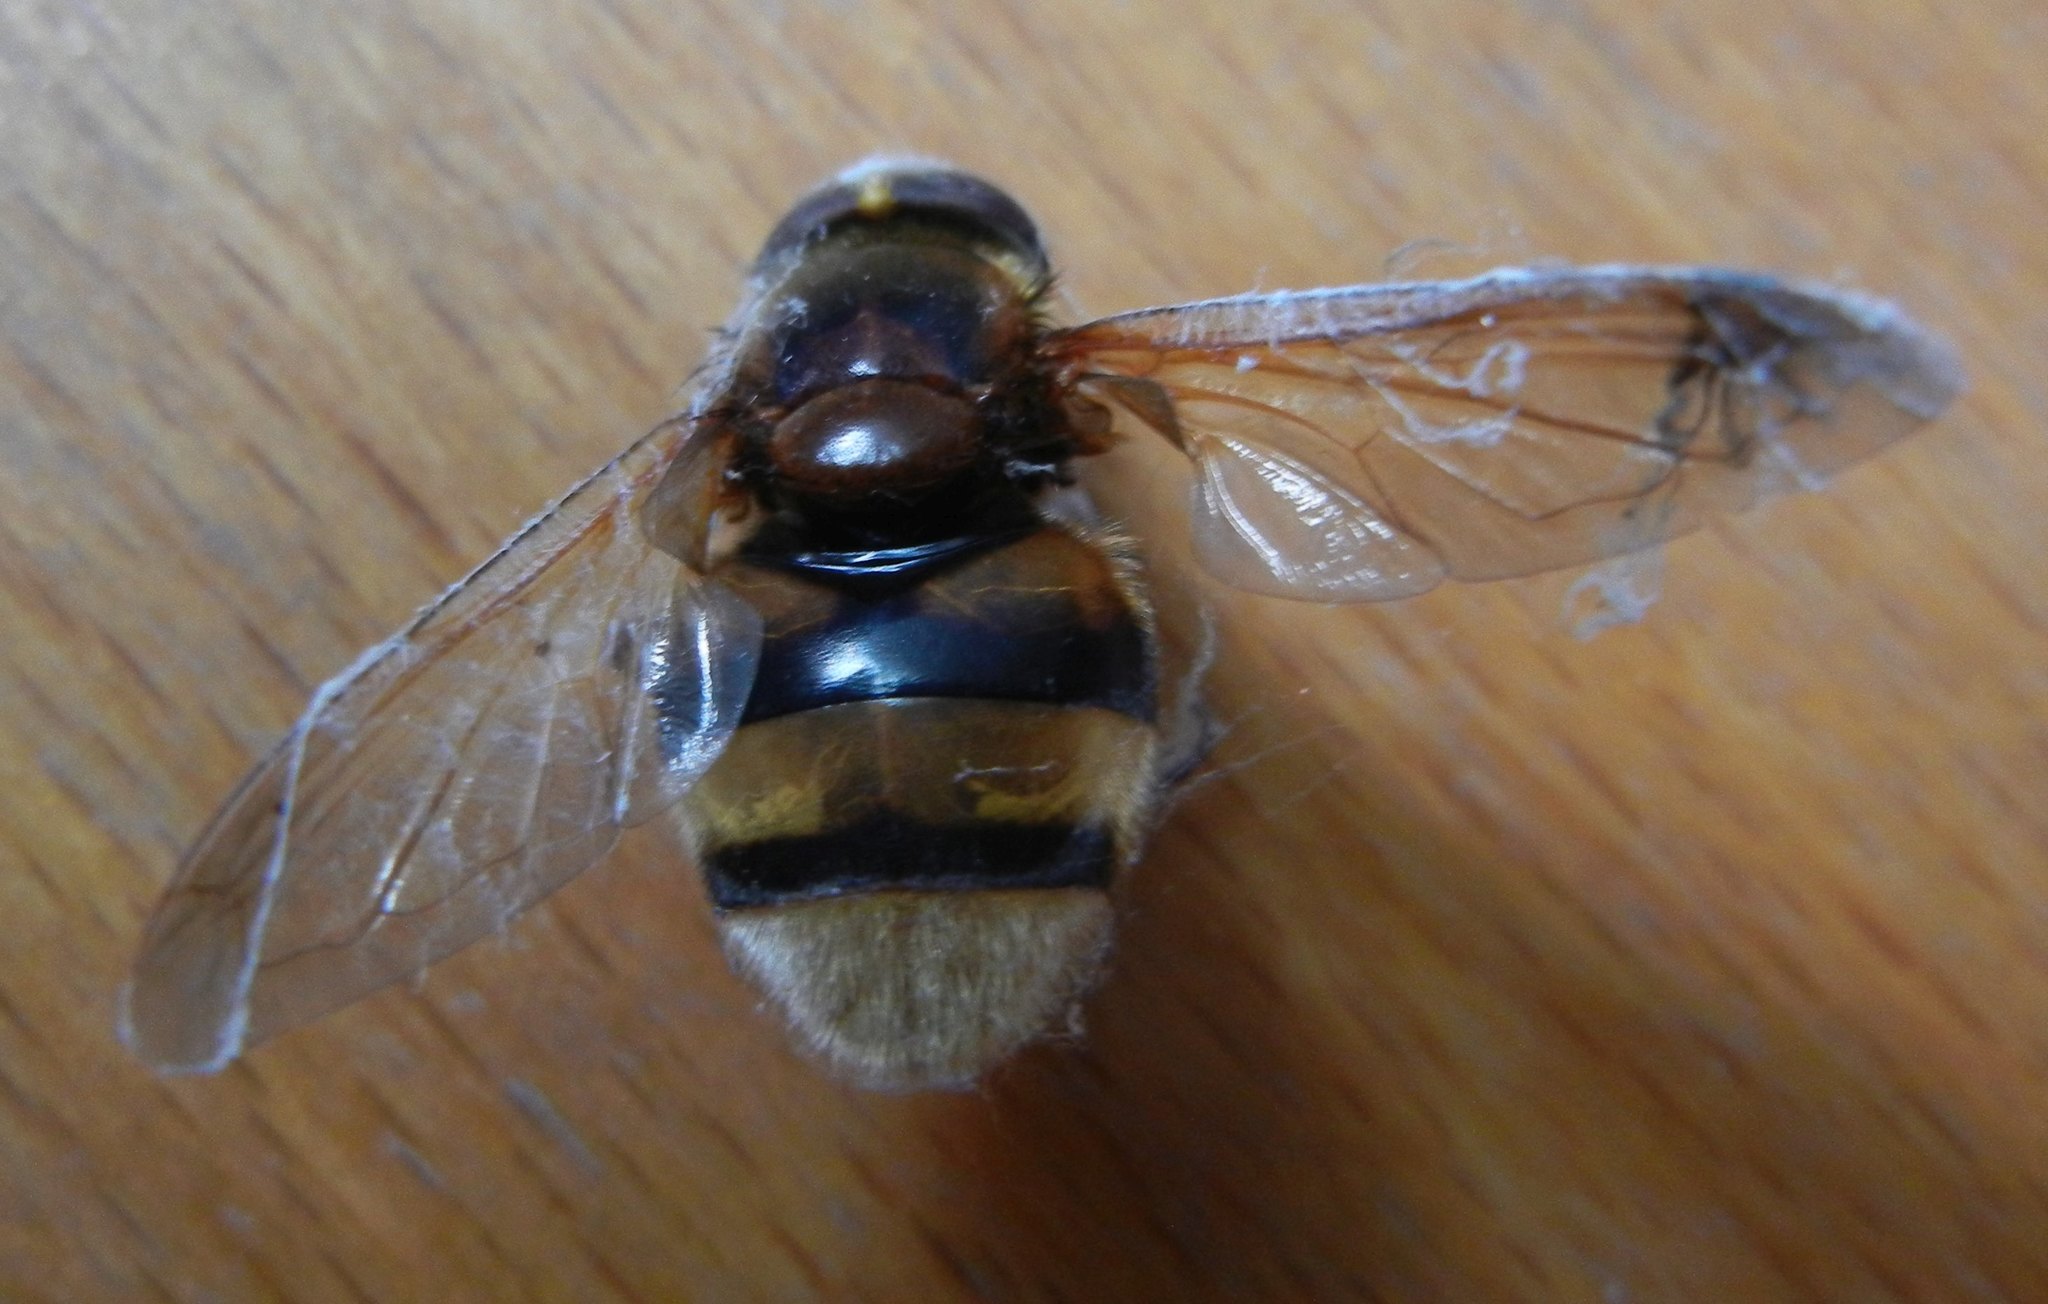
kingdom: Animalia
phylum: Arthropoda
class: Insecta
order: Diptera
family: Syrphidae
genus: Volucella
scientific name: Volucella zonaria
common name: Hornet hoverfly
